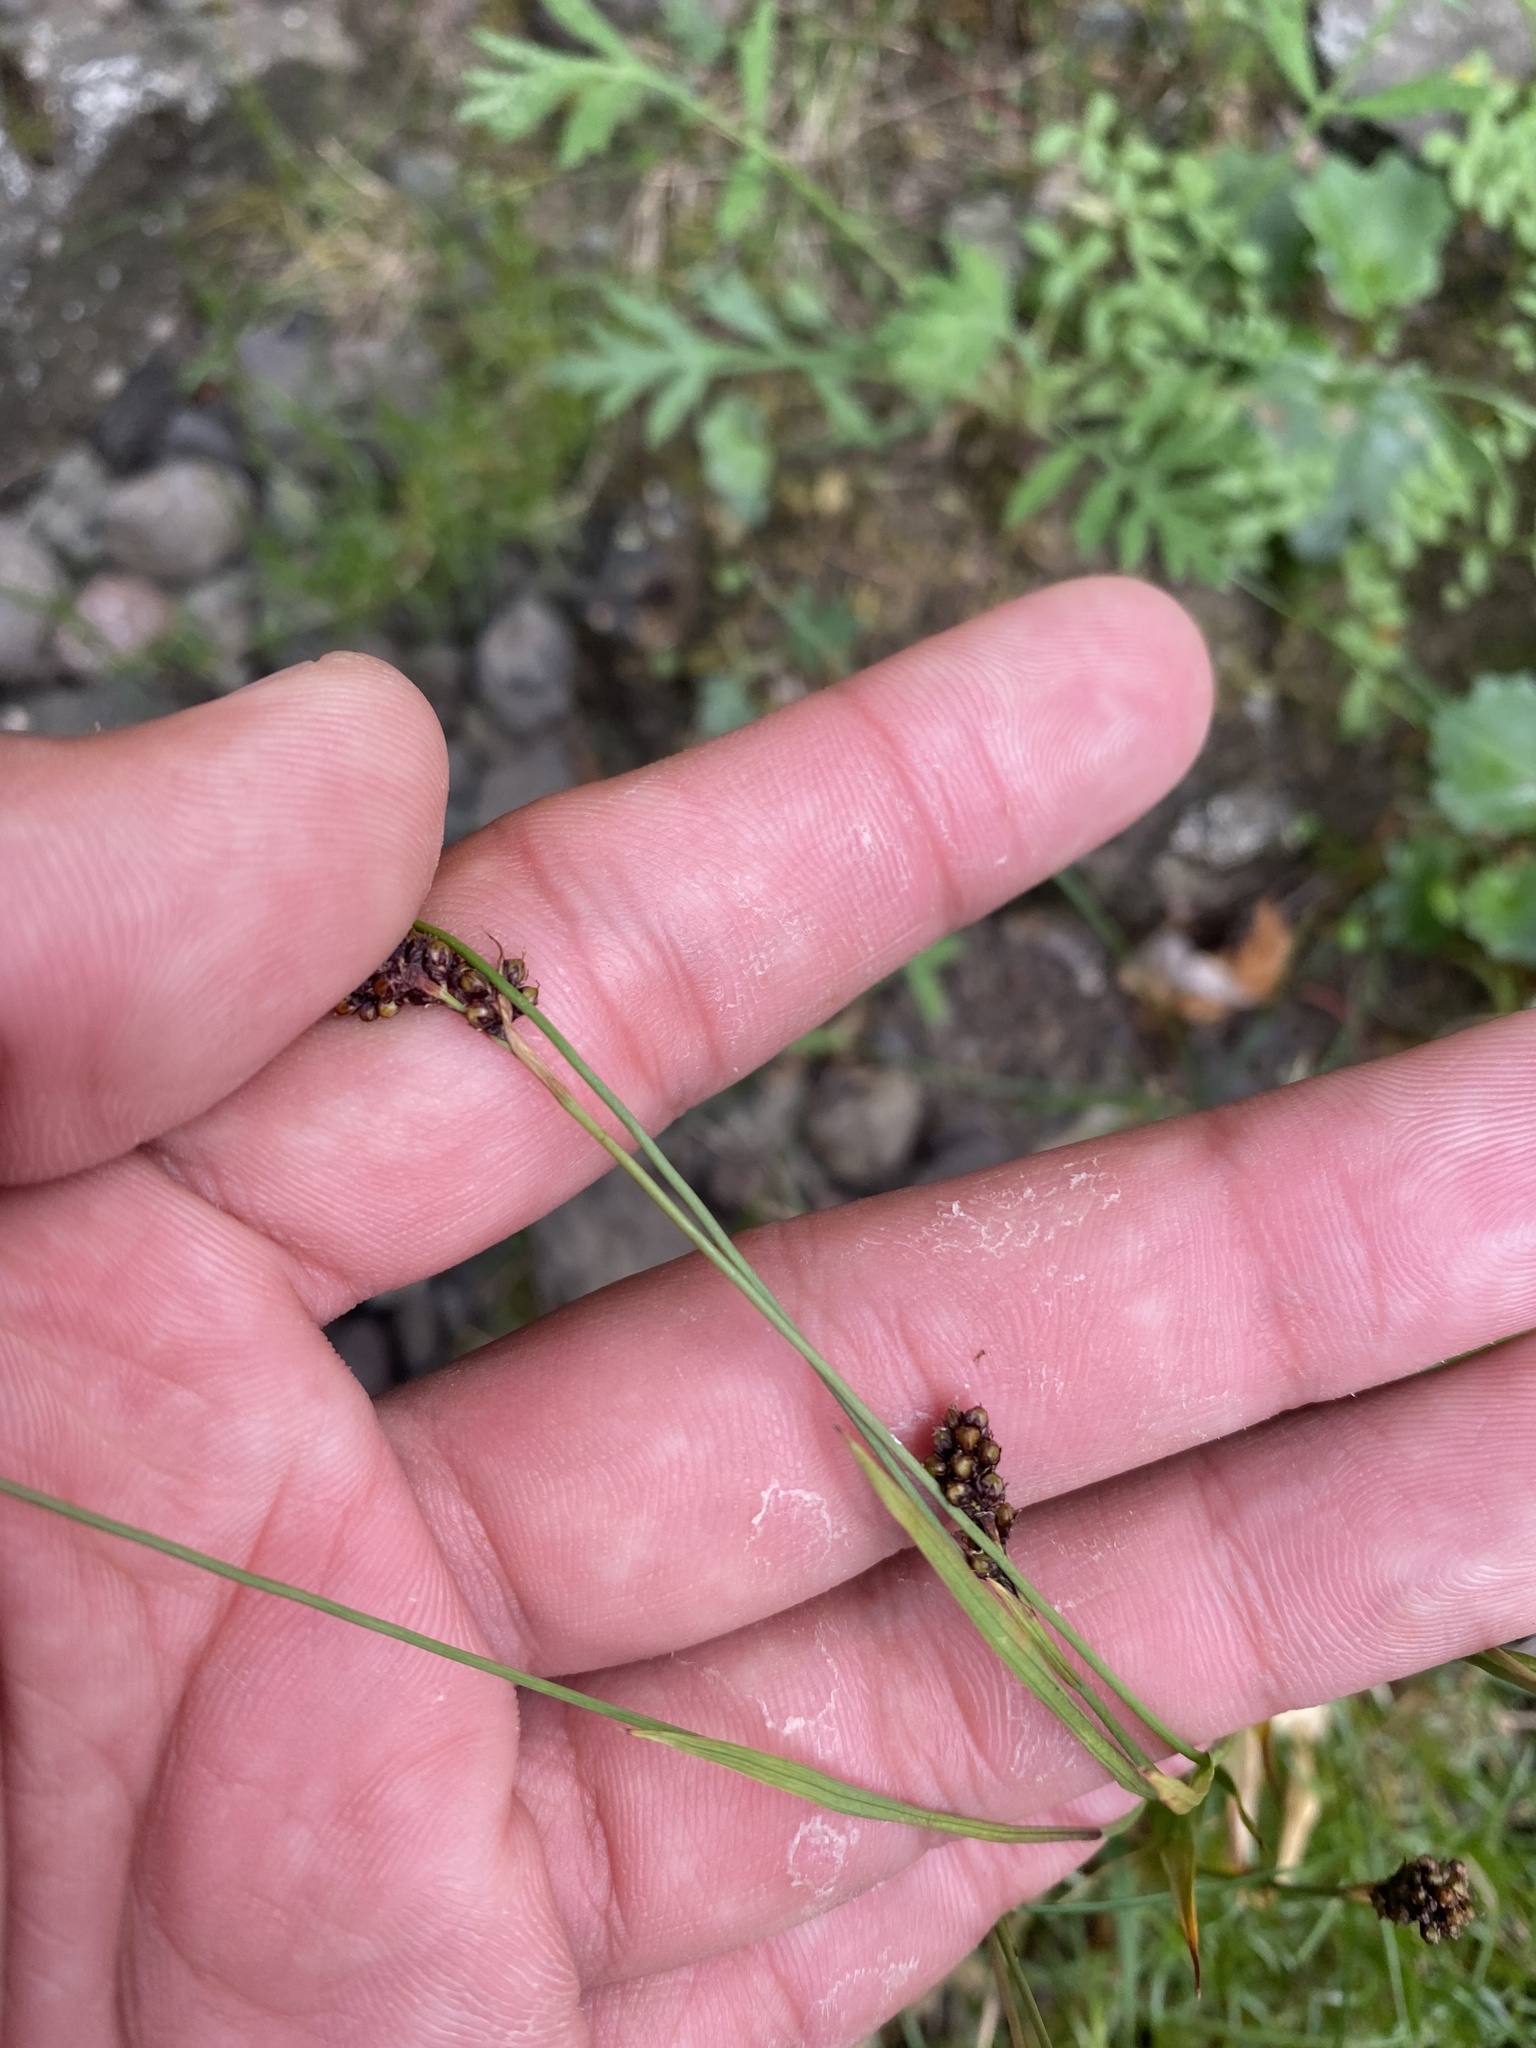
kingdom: Plantae
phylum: Tracheophyta
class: Liliopsida
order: Poales
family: Juncaceae
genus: Luzula
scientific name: Luzula nivalis
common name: Arctic woodrush
